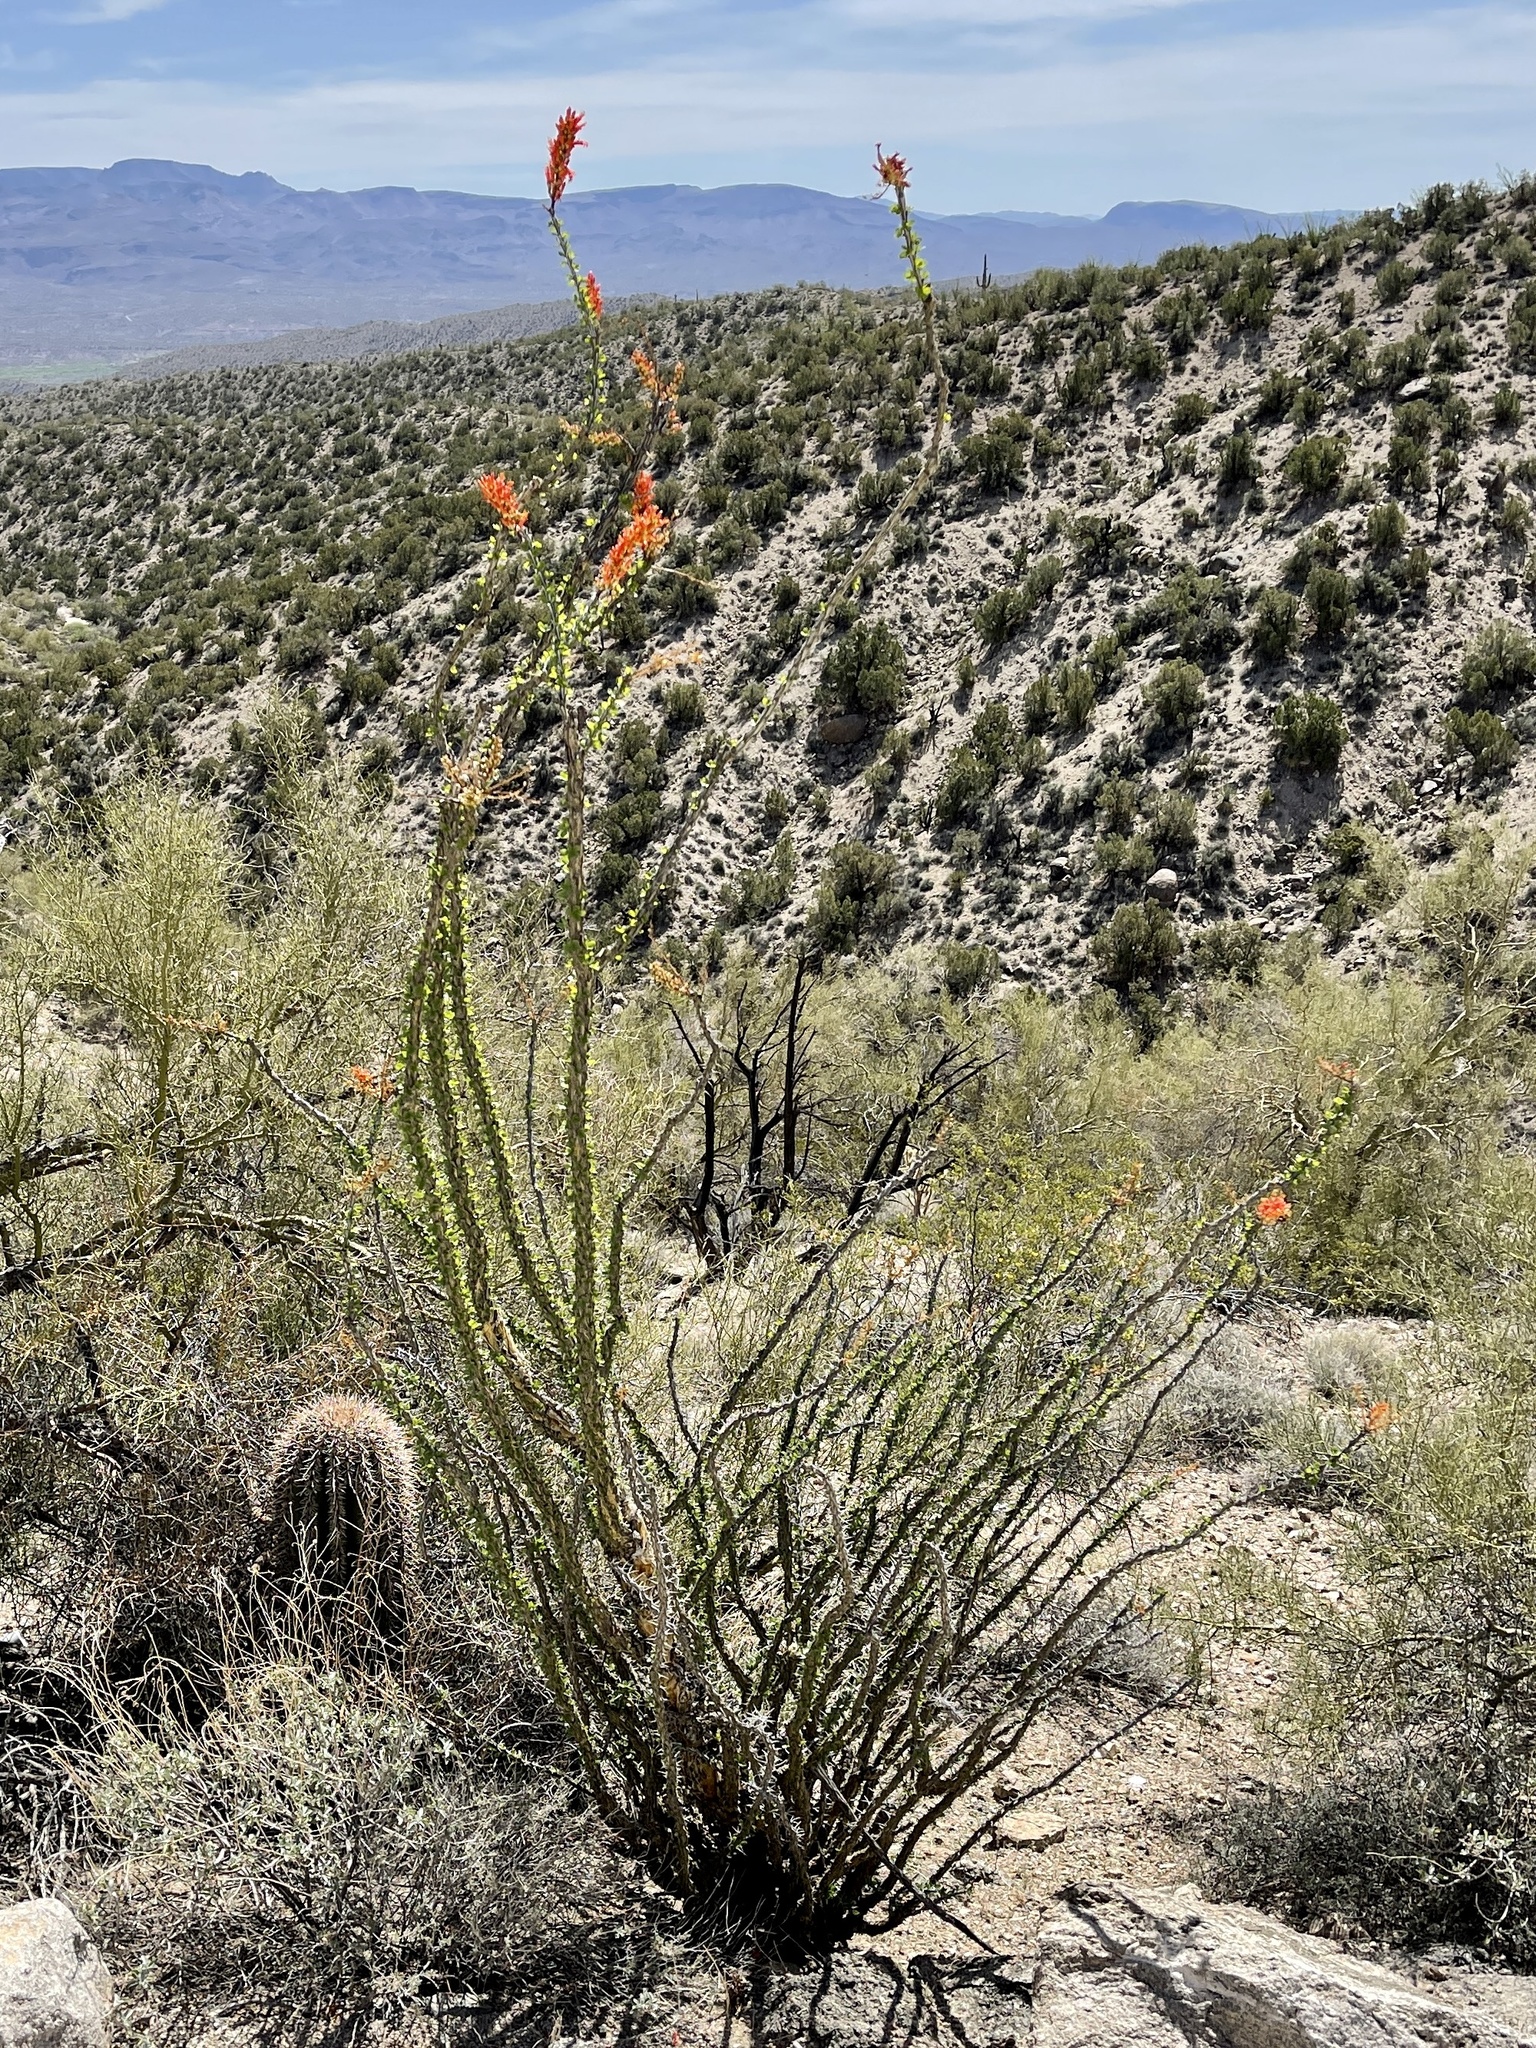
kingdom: Plantae
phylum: Tracheophyta
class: Magnoliopsida
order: Ericales
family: Fouquieriaceae
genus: Fouquieria
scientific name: Fouquieria splendens
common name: Vine-cactus
